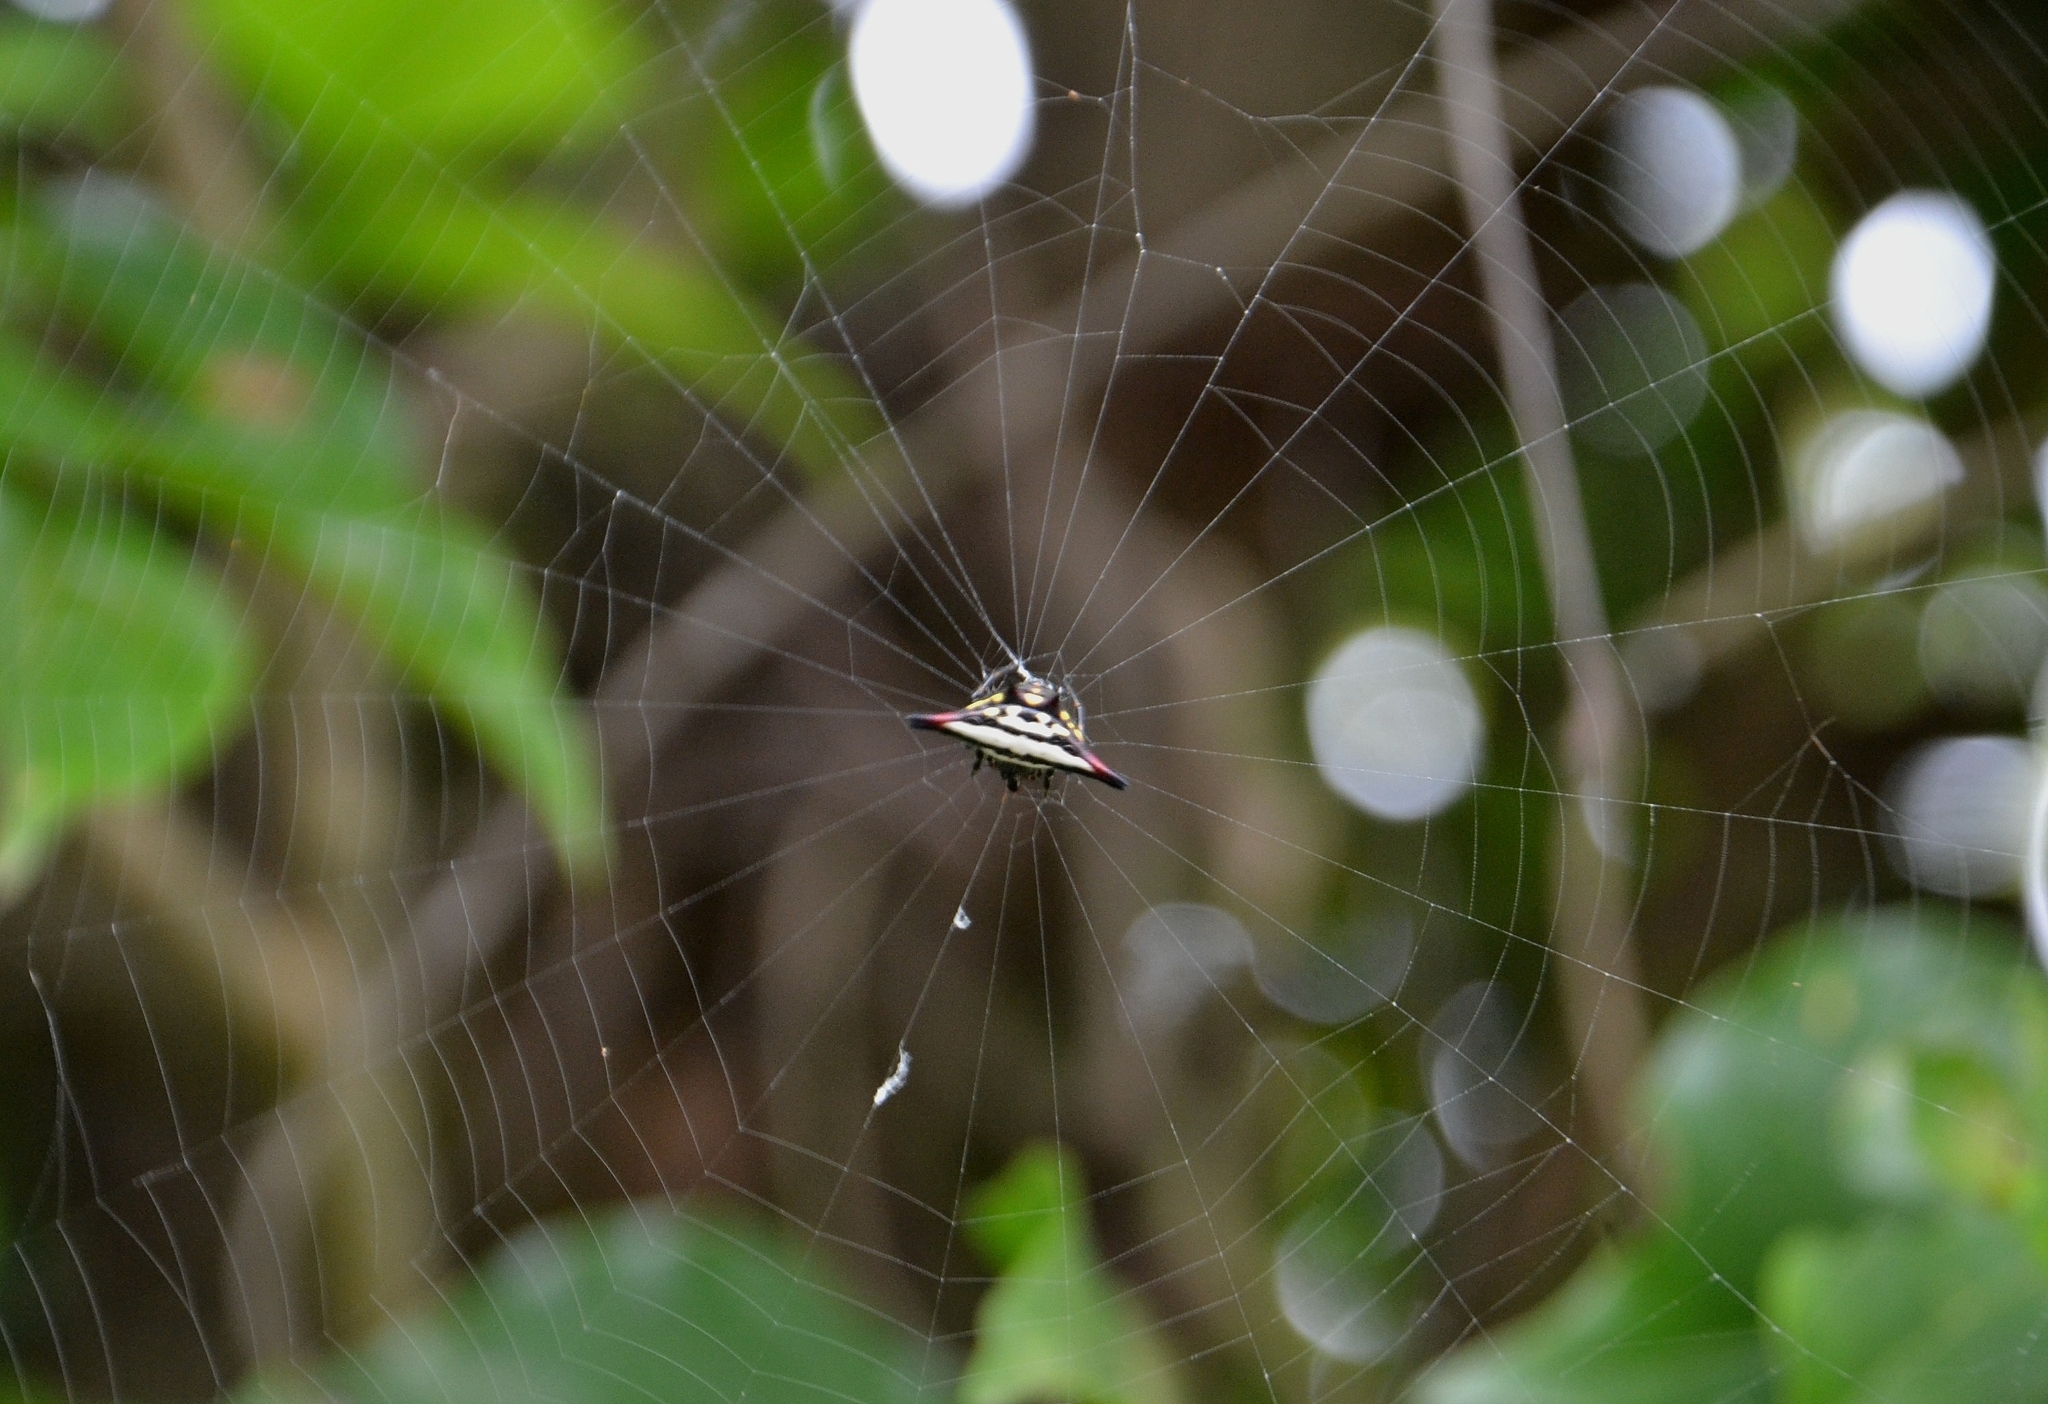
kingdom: Animalia
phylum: Arthropoda
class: Arachnida
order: Araneae
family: Araneidae
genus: Gasteracantha
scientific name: Gasteracantha geminata
